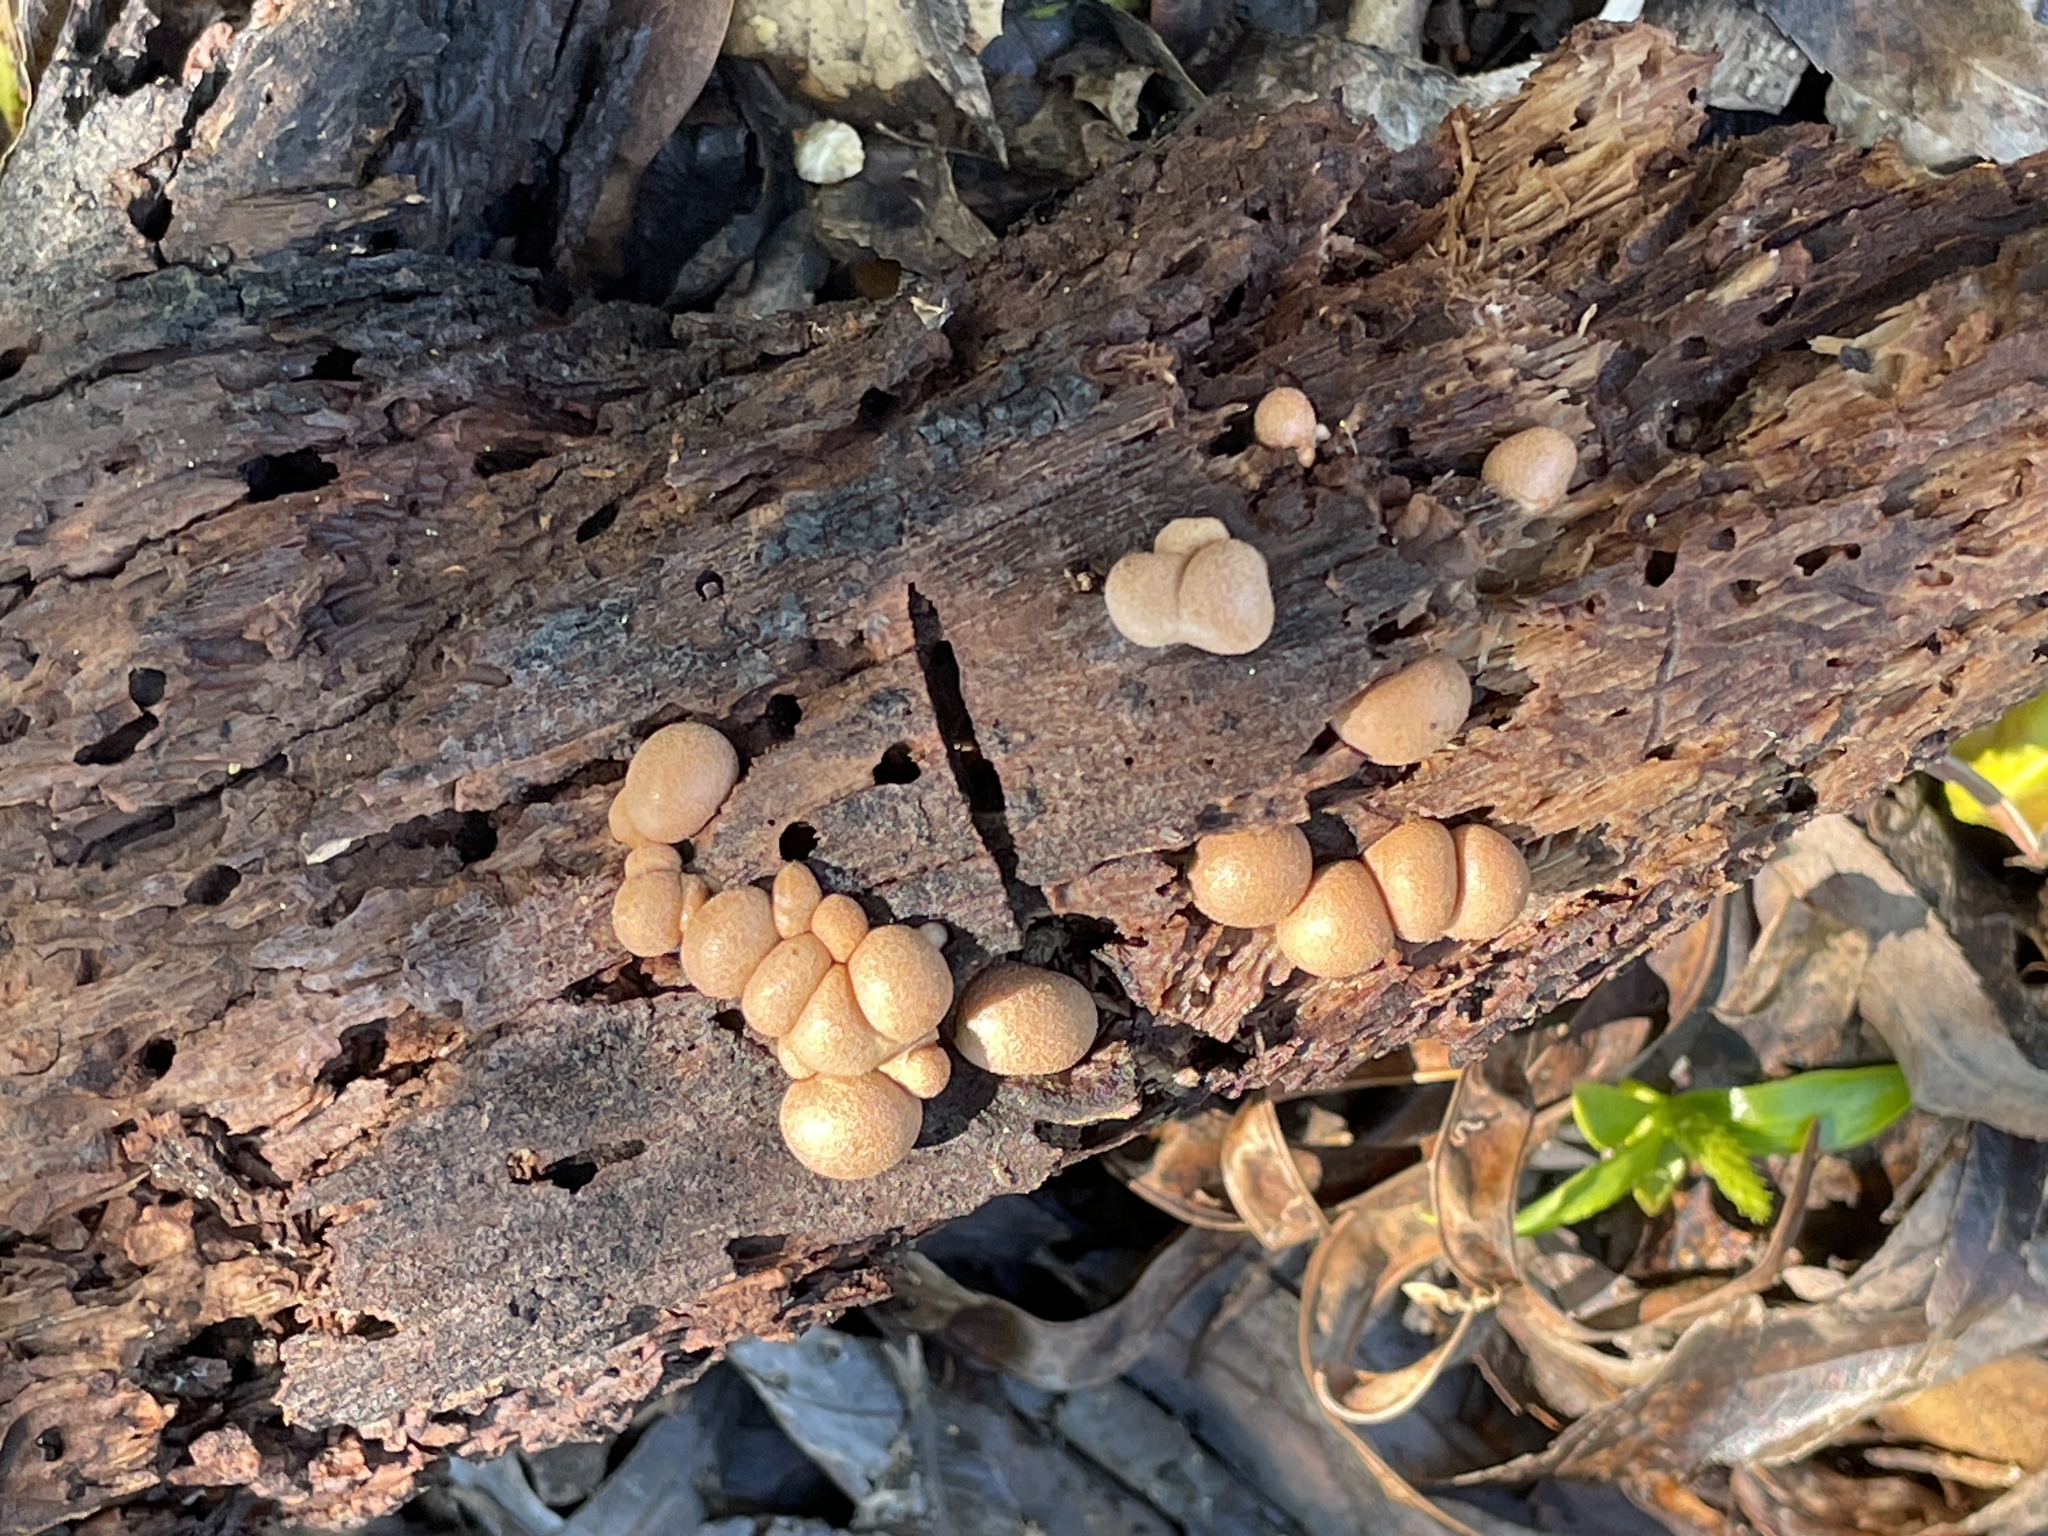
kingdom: Protozoa
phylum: Mycetozoa
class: Myxomycetes
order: Cribrariales
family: Tubiferaceae
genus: Lycogala
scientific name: Lycogala epidendrum
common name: Wolf's milk
